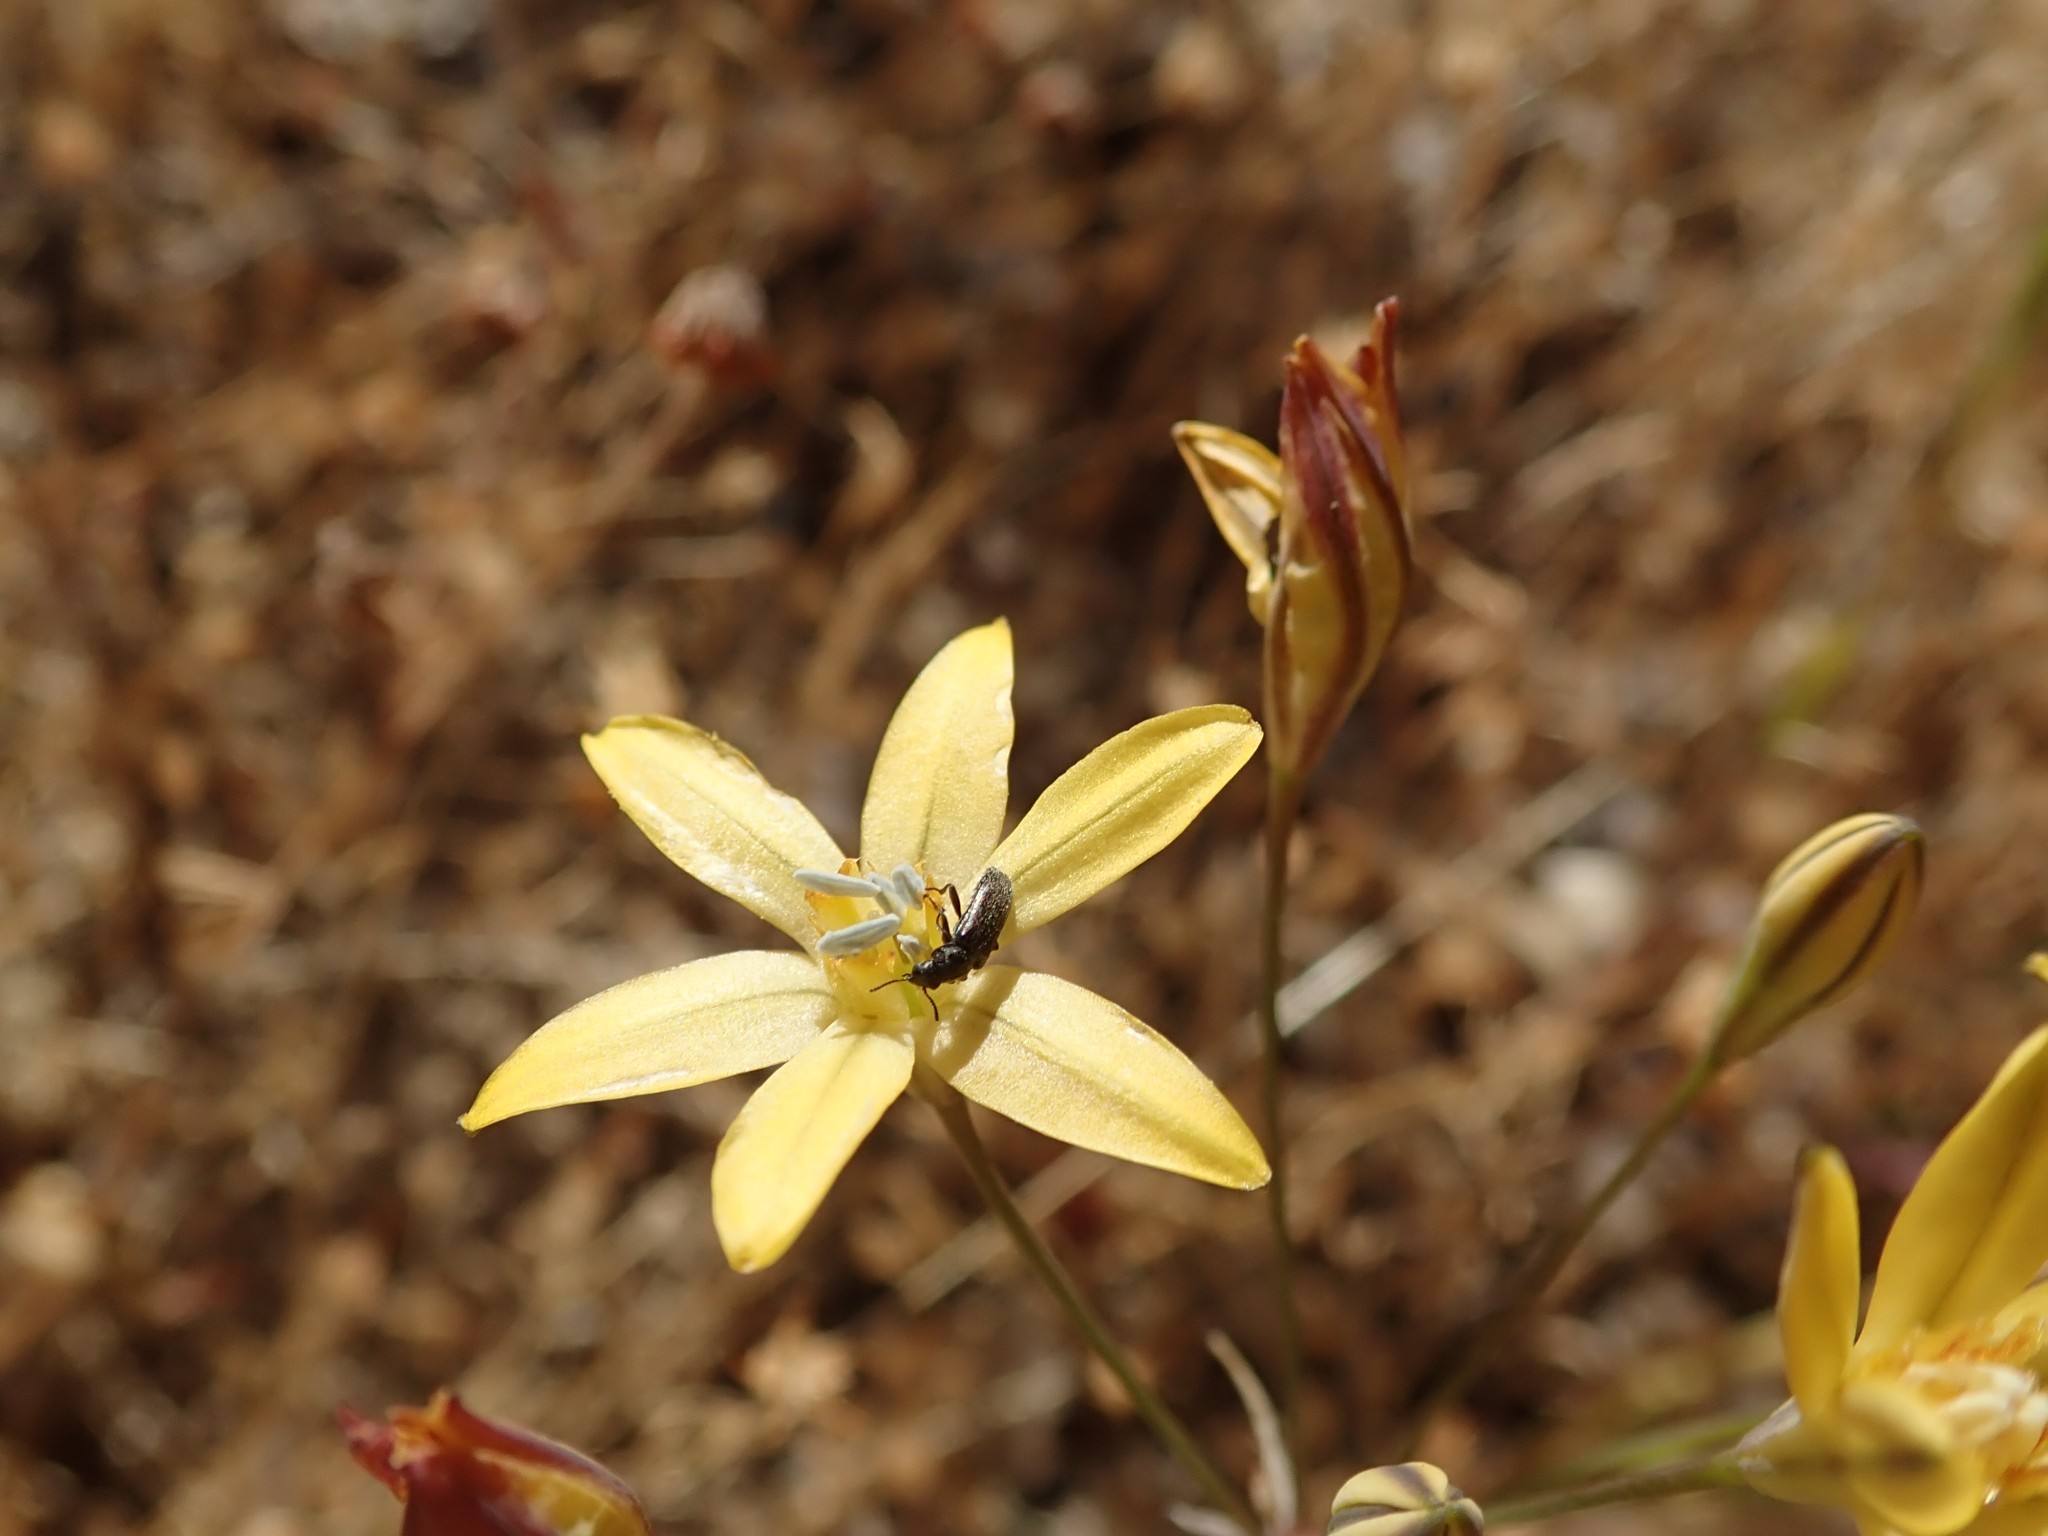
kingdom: Plantae
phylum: Tracheophyta
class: Liliopsida
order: Asparagales
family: Asparagaceae
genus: Triteleia
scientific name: Triteleia ixioides
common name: Yellow-brodiaea
